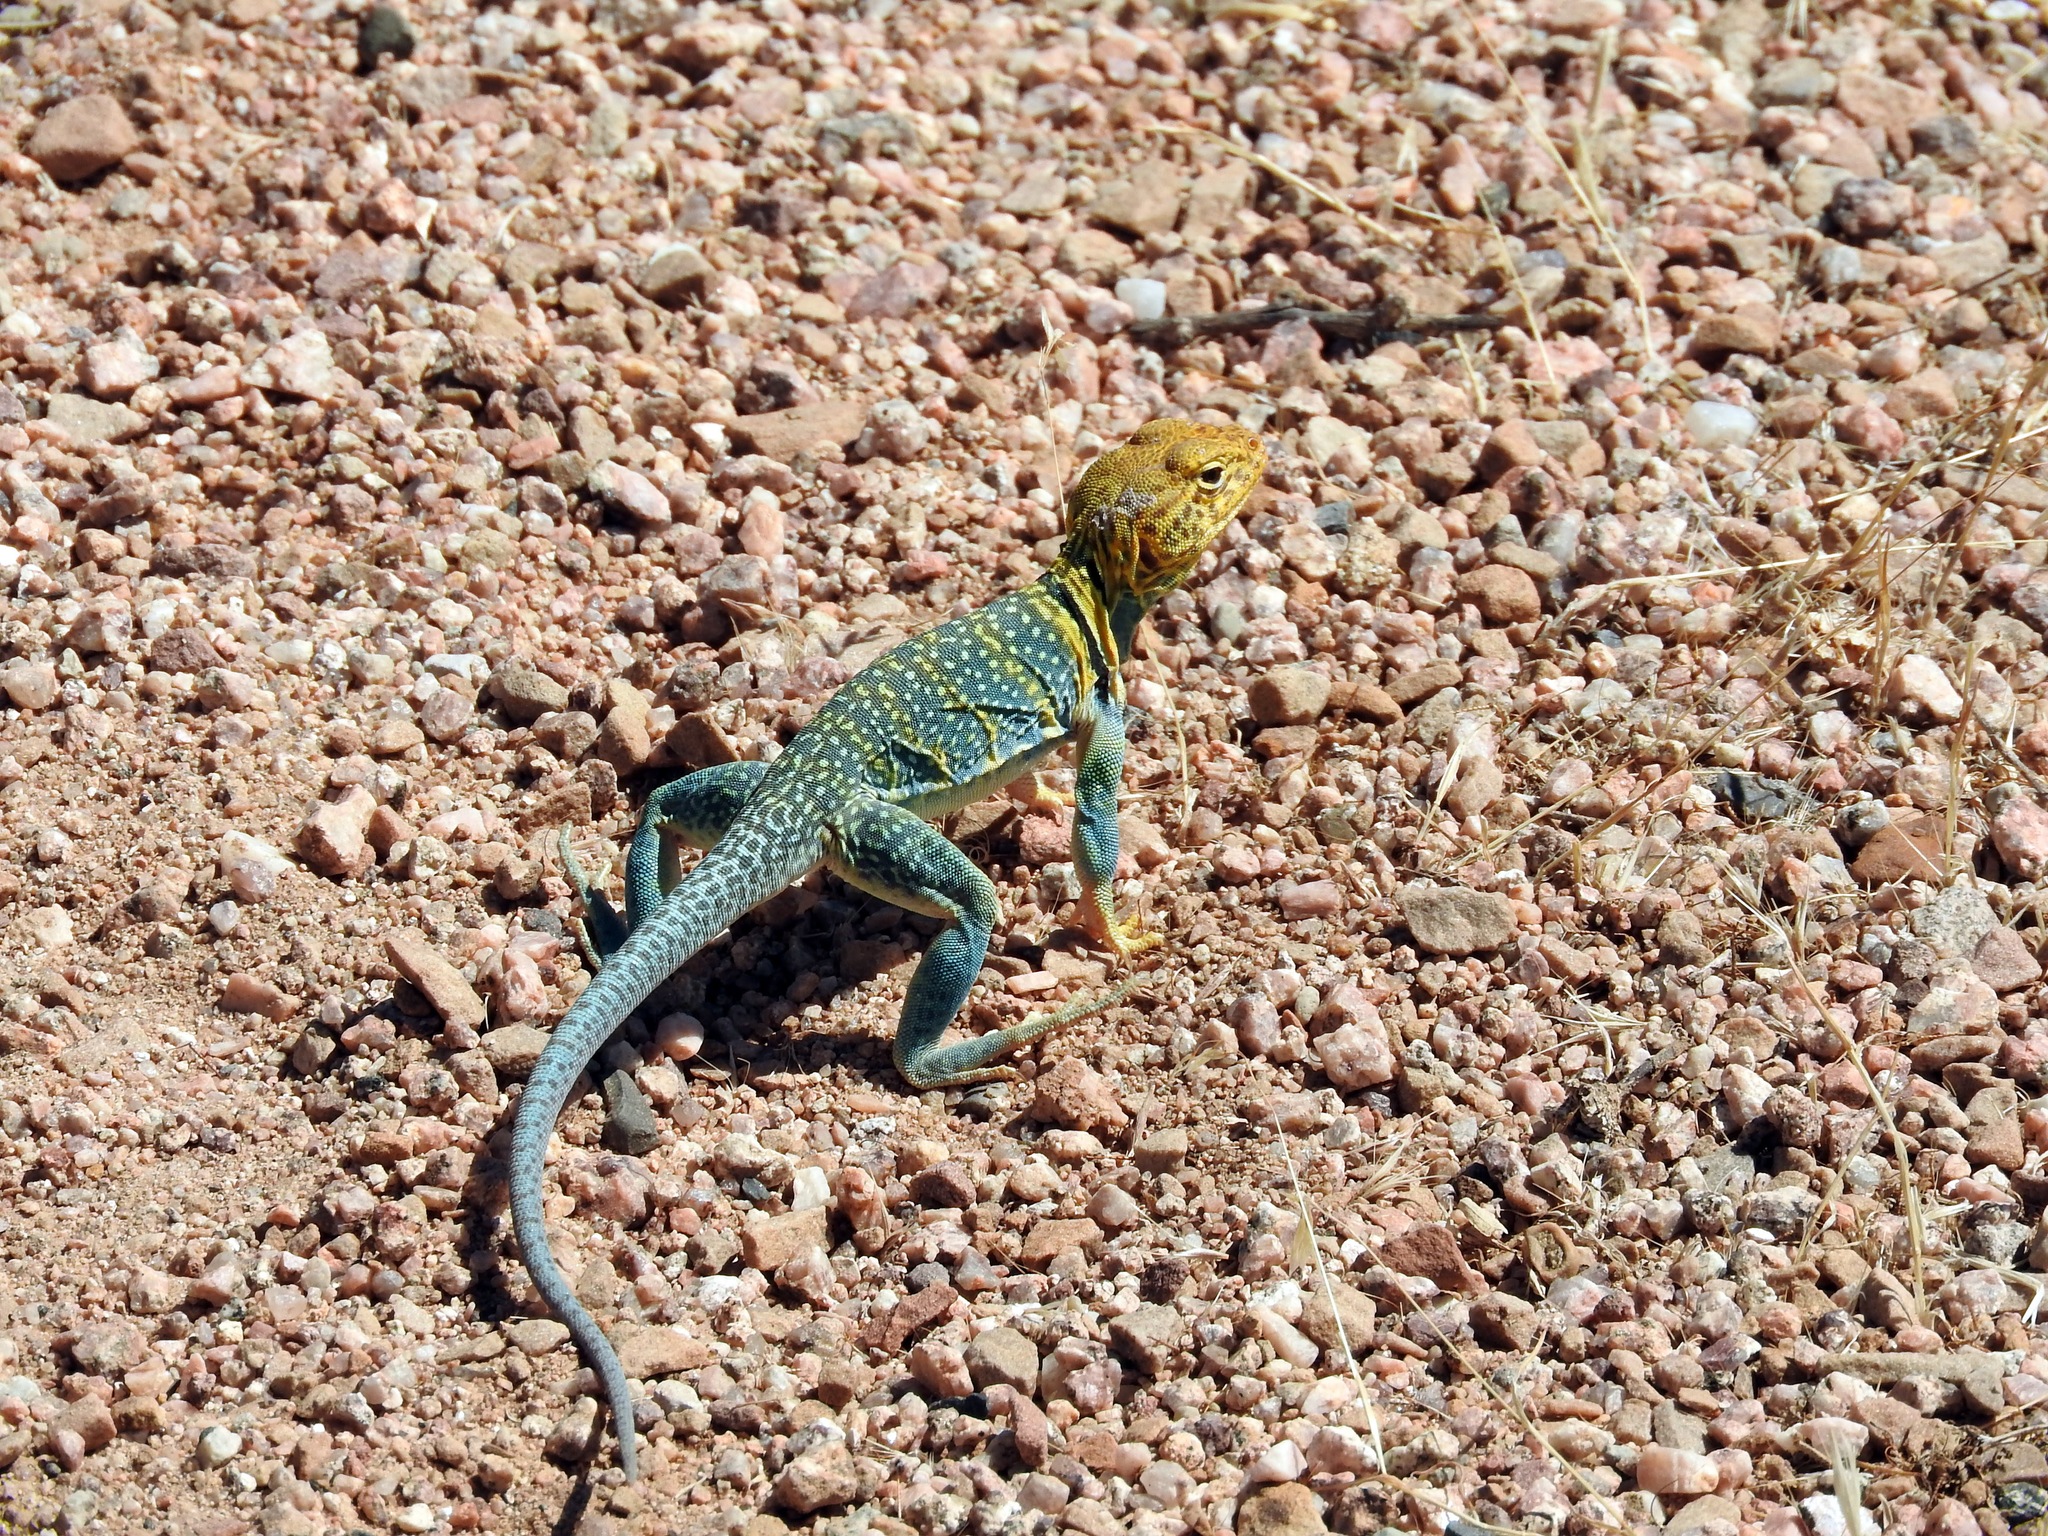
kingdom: Animalia
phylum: Chordata
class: Squamata
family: Crotaphytidae
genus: Crotaphytus
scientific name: Crotaphytus collaris
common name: Collared lizard
